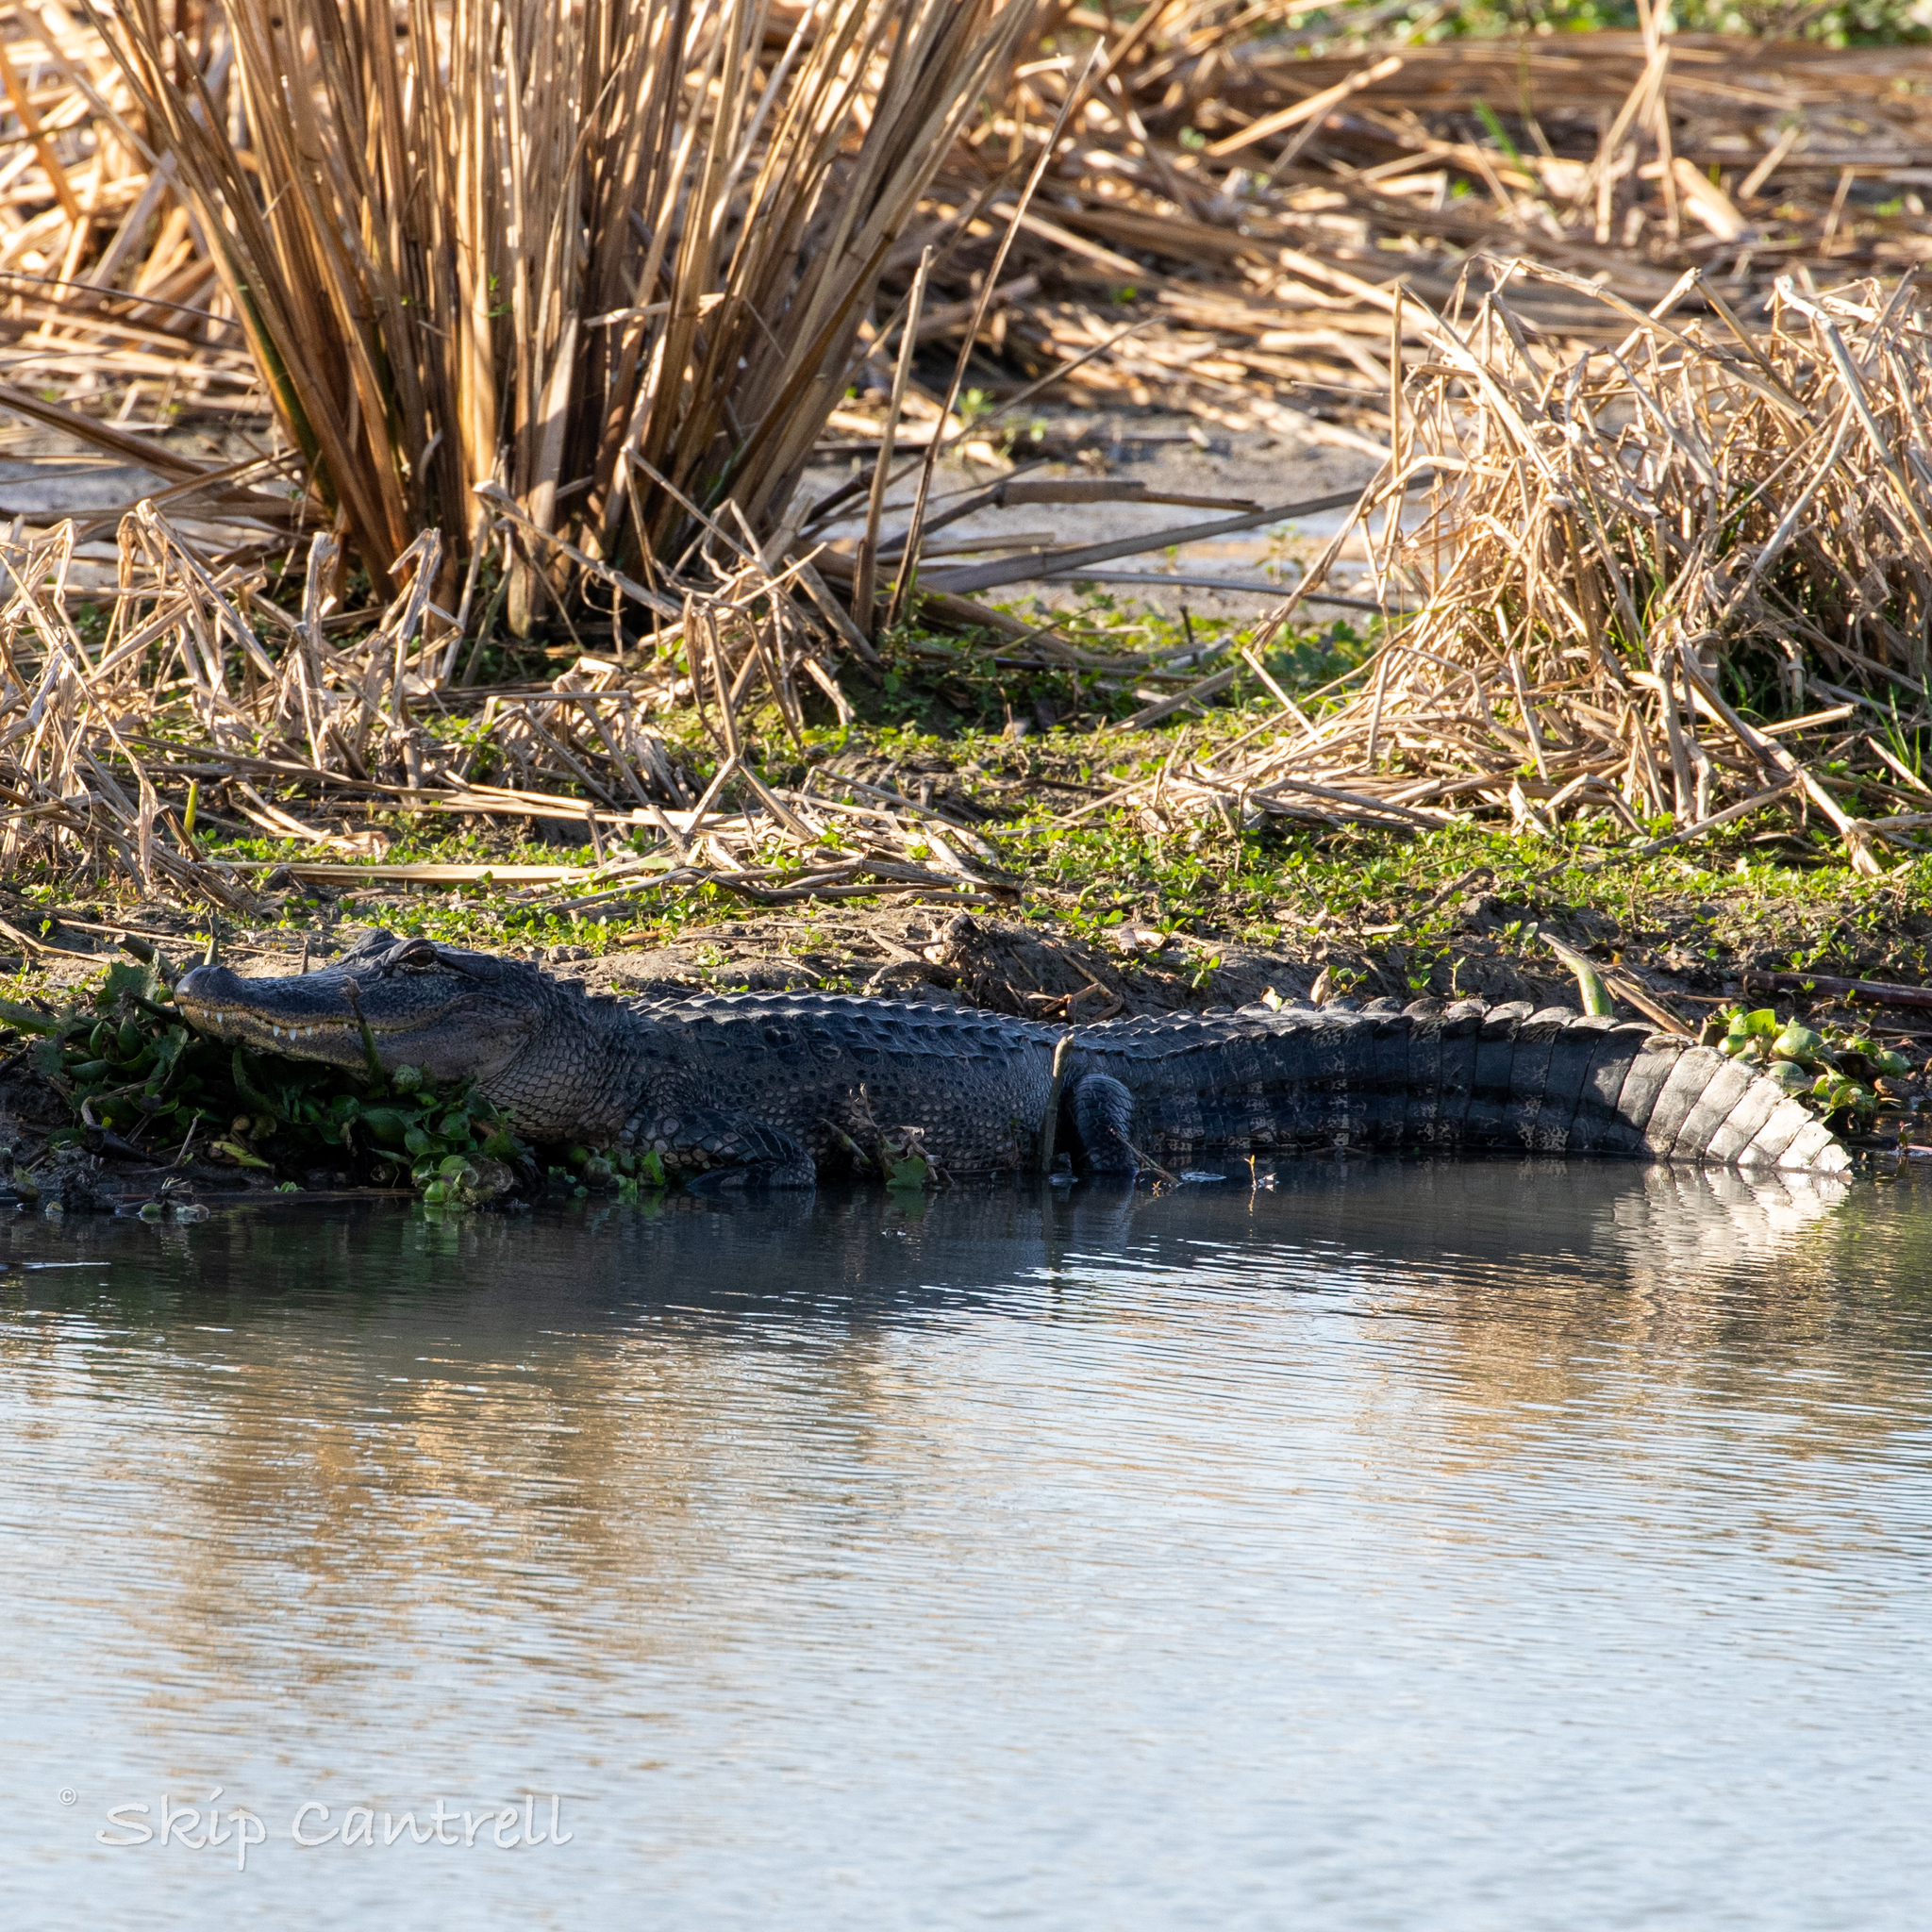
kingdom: Animalia
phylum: Chordata
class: Crocodylia
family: Alligatoridae
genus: Alligator
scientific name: Alligator mississippiensis
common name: American alligator
